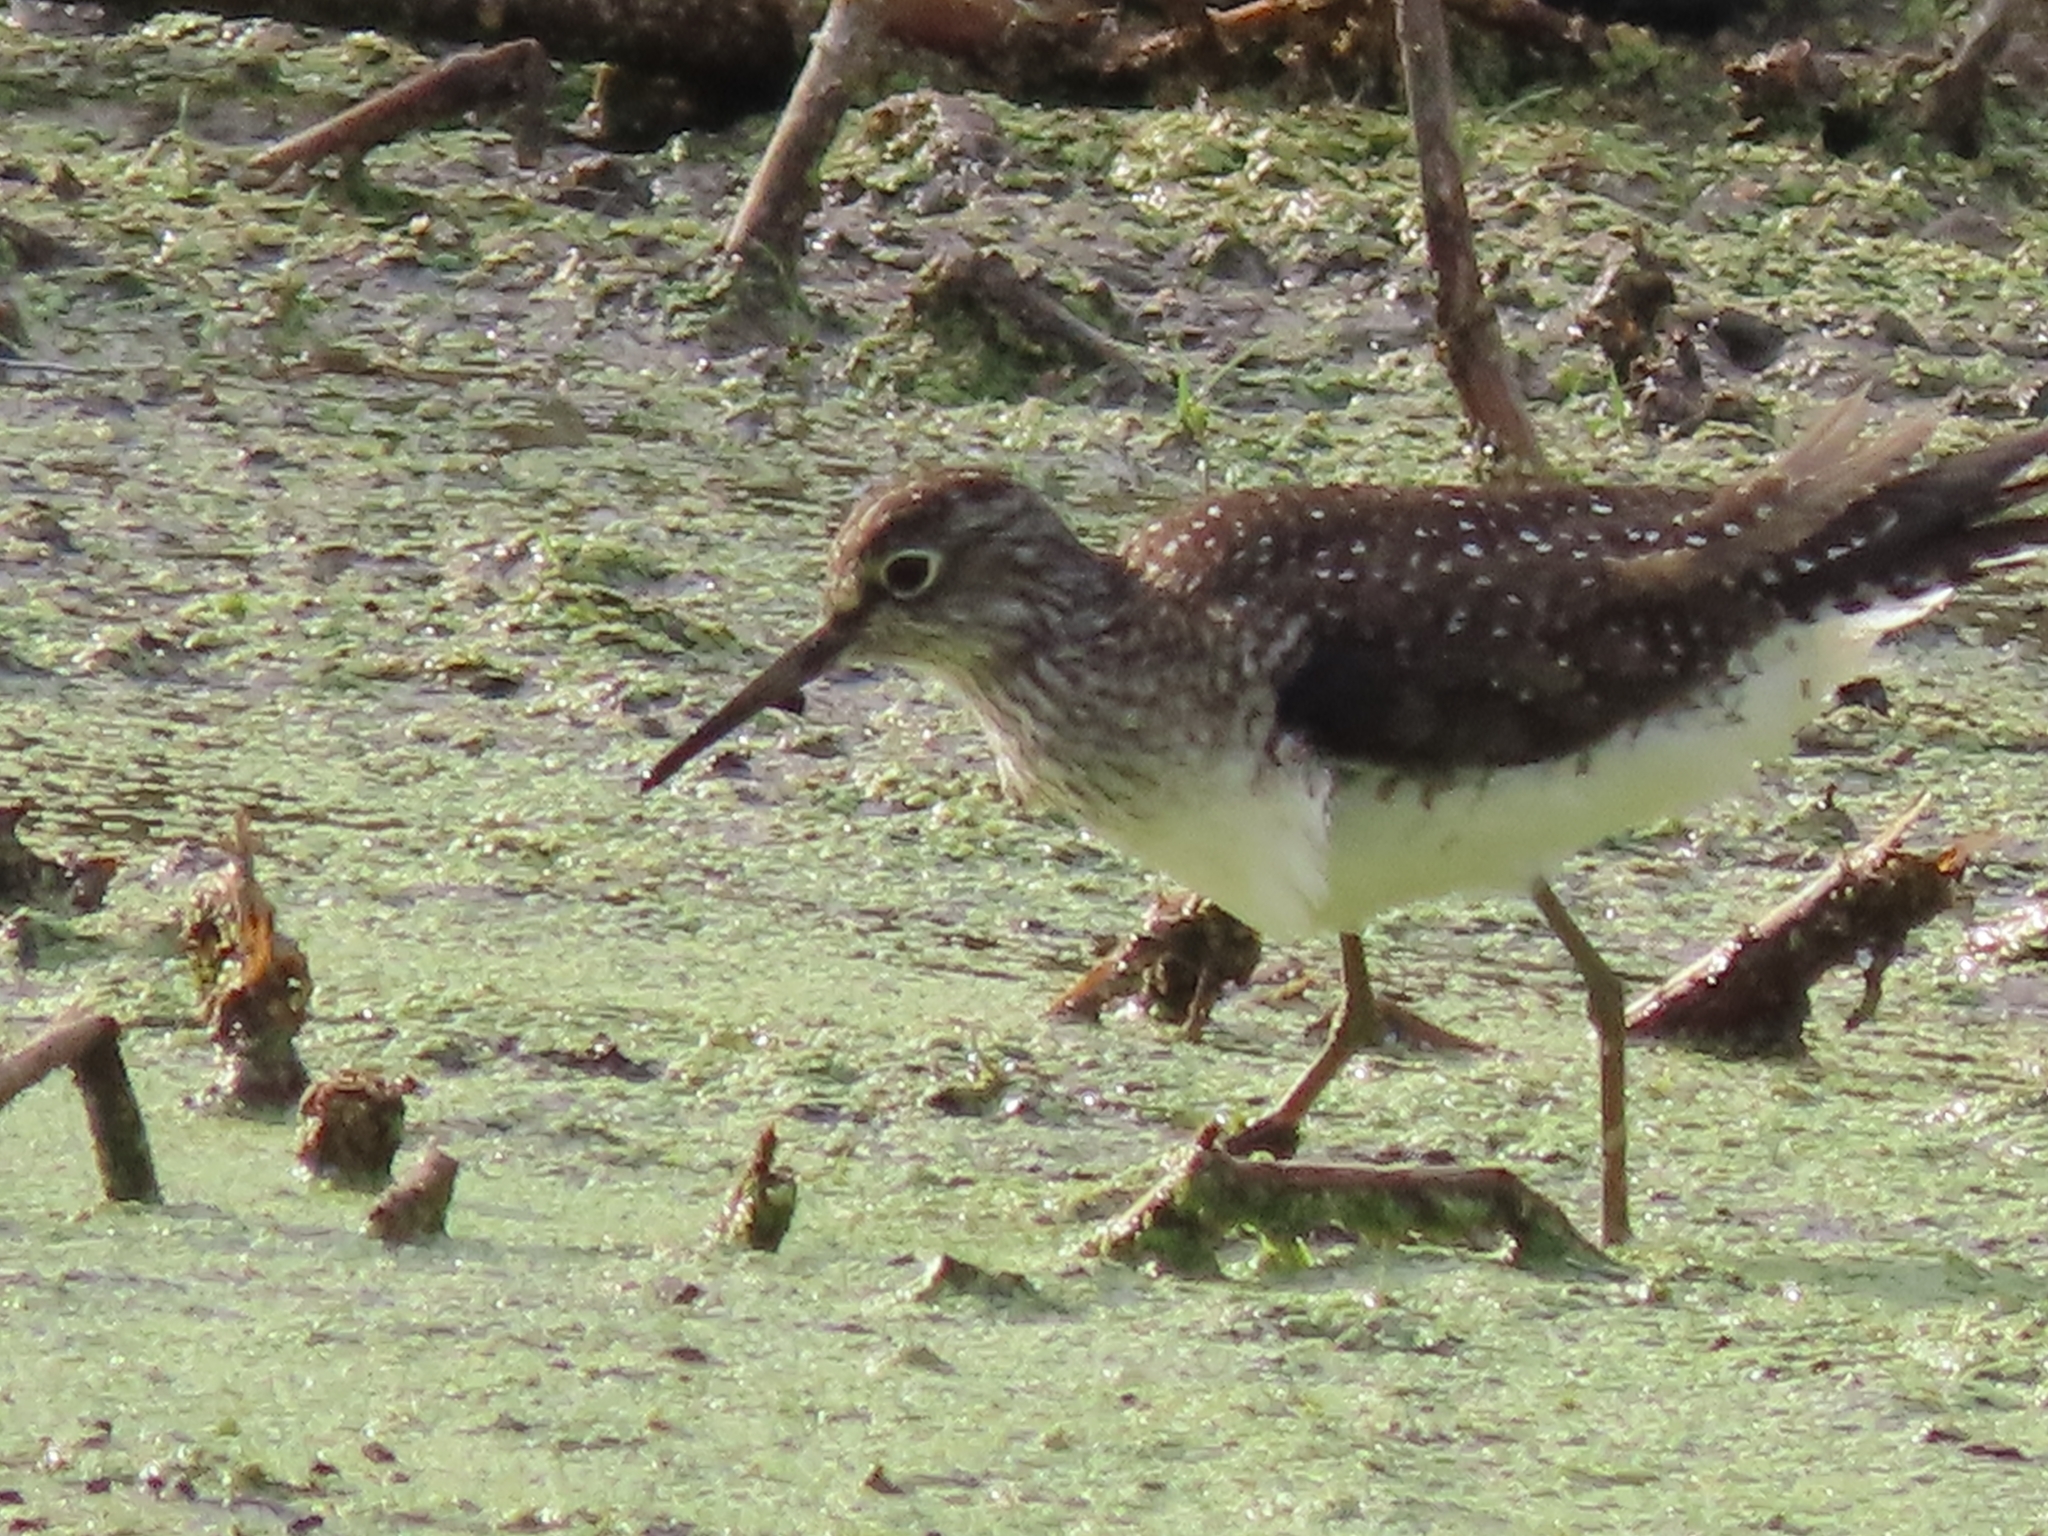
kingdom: Animalia
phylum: Chordata
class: Aves
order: Charadriiformes
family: Scolopacidae
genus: Tringa
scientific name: Tringa solitaria
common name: Solitary sandpiper
